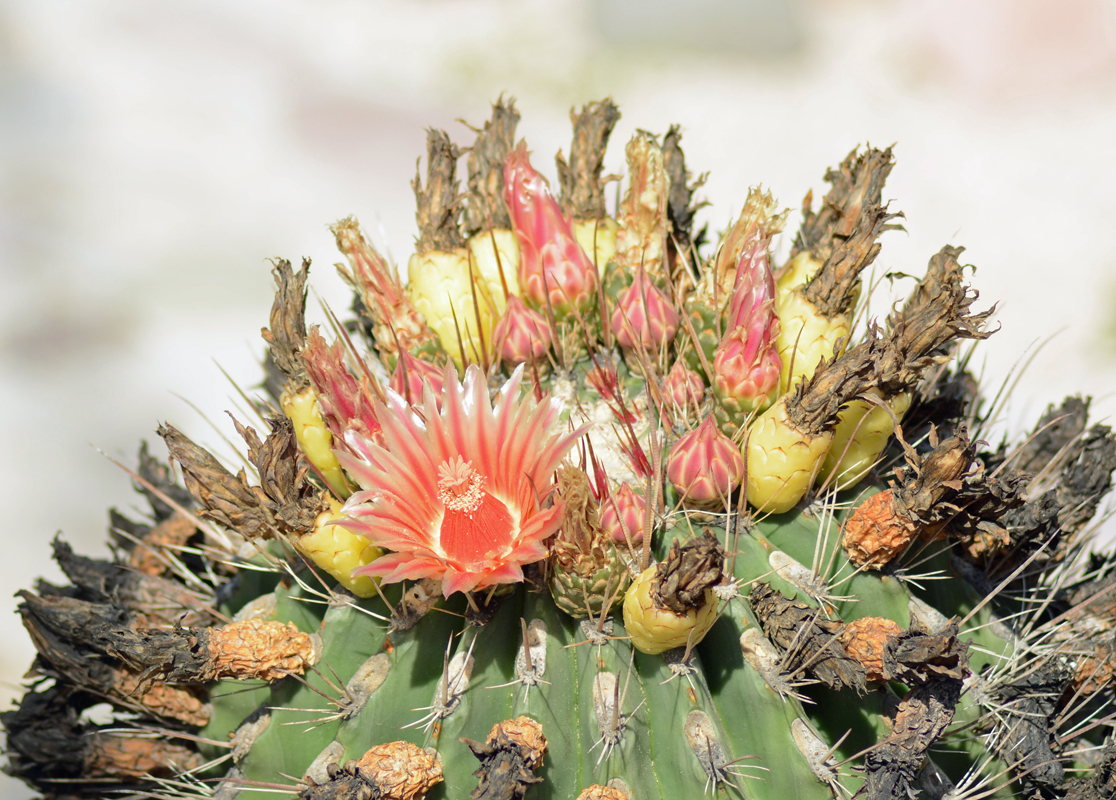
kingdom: Plantae
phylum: Tracheophyta
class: Magnoliopsida
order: Caryophyllales
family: Cactaceae
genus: Ferocactus
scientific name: Ferocactus townsendianus
